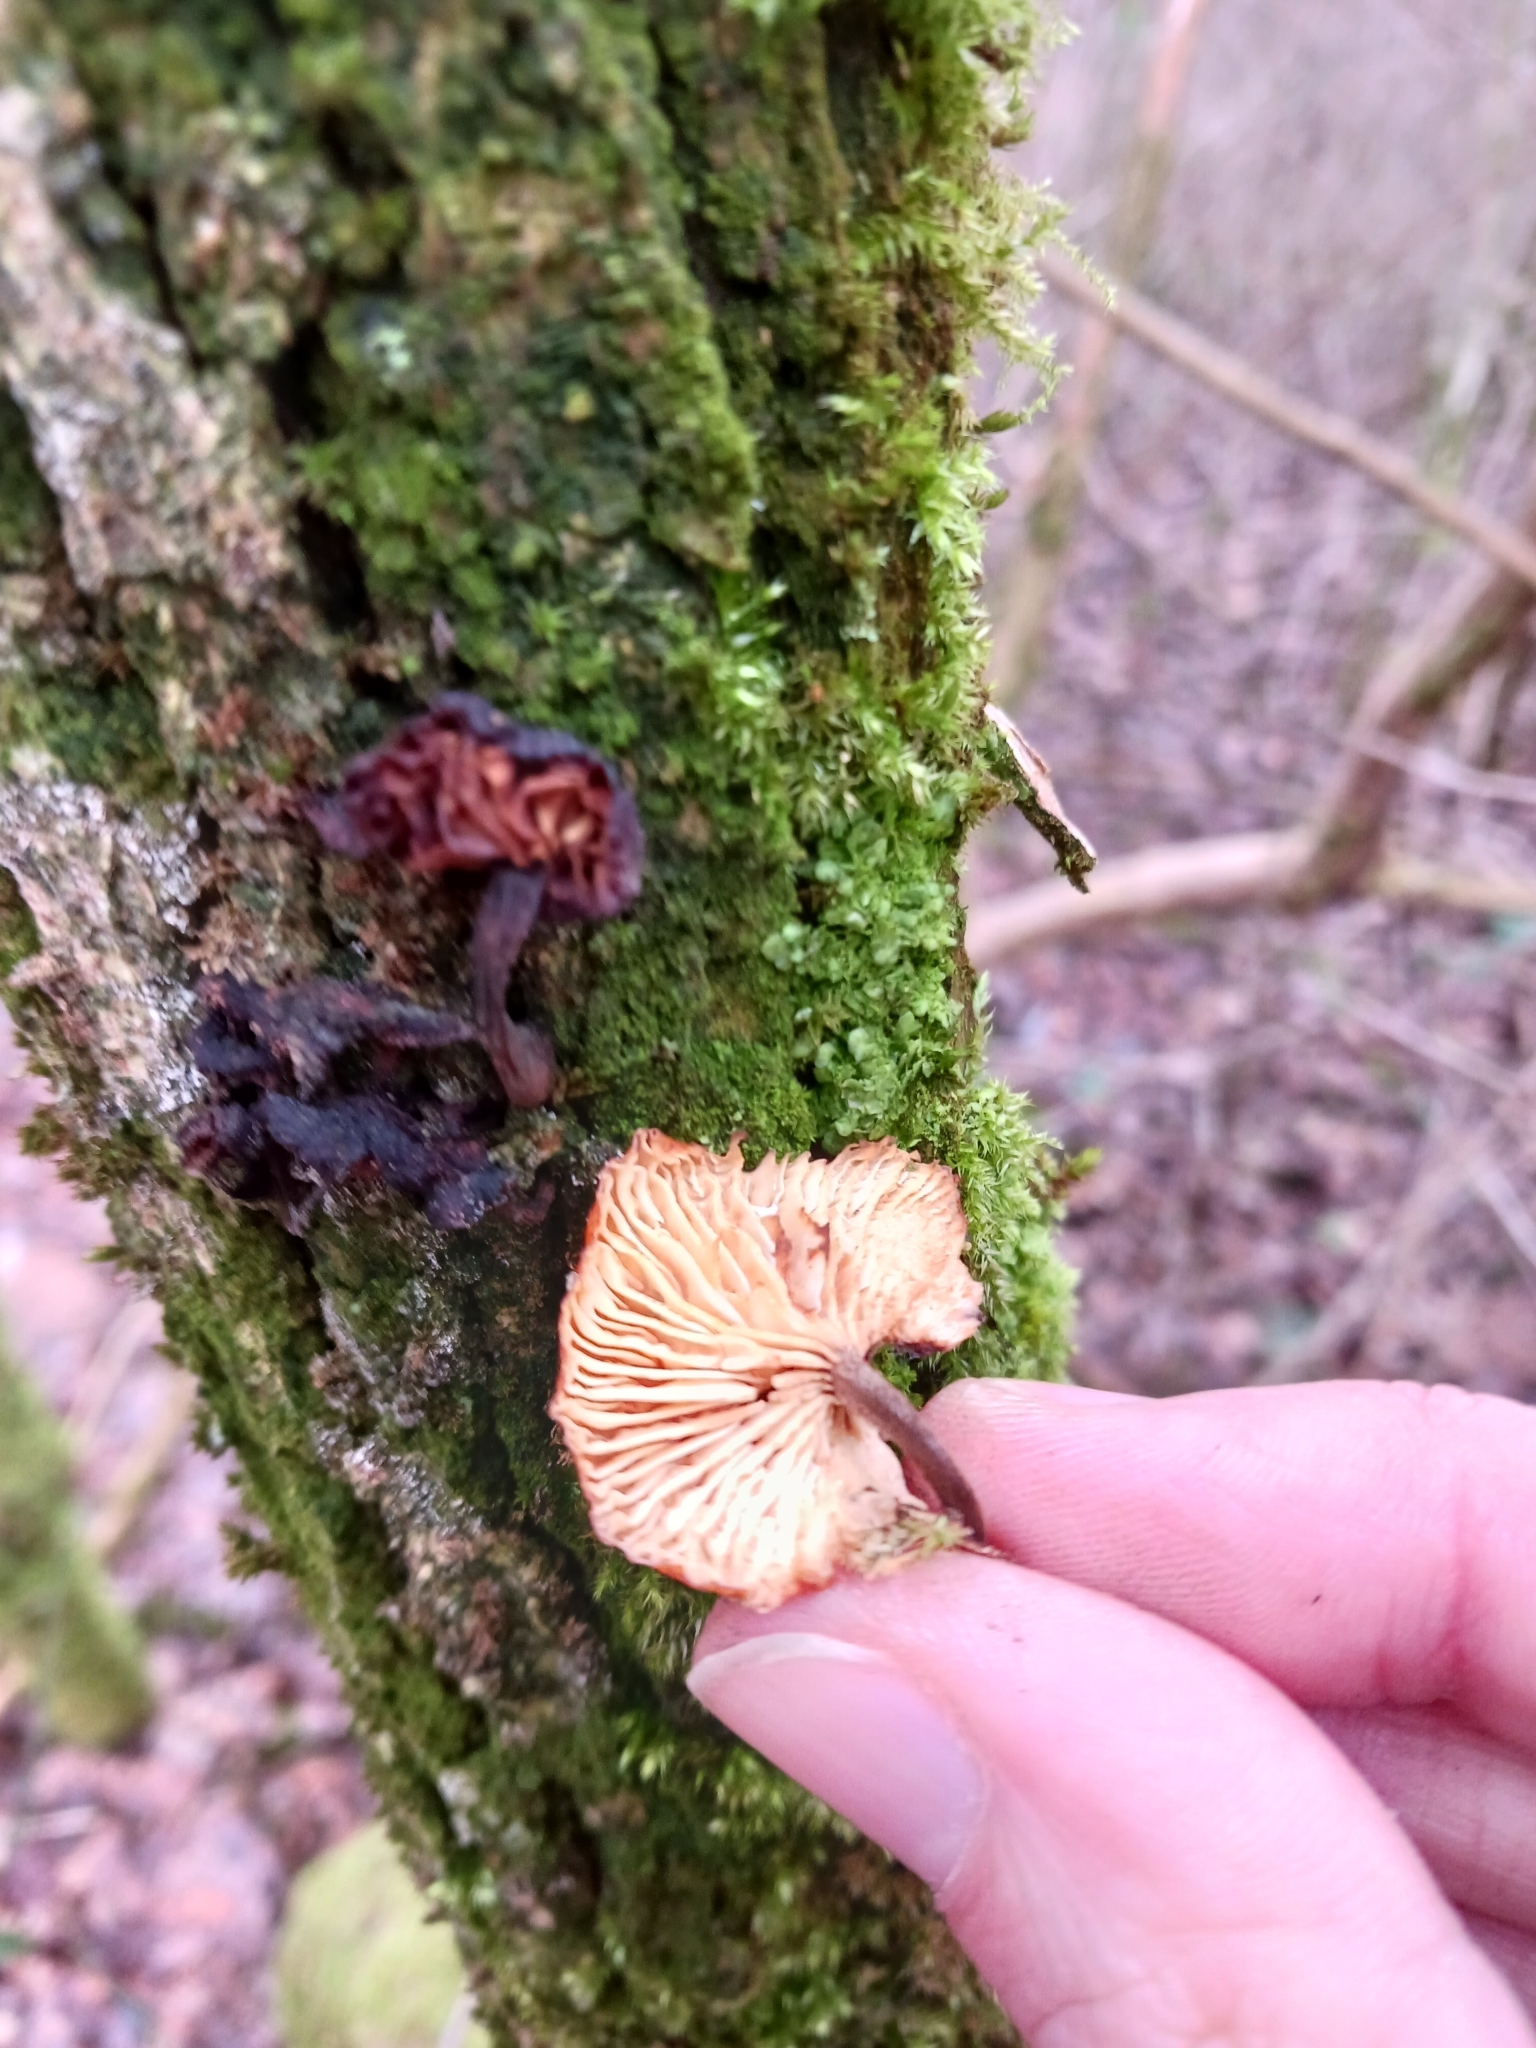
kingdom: Fungi
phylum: Basidiomycota
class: Agaricomycetes
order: Agaricales
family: Physalacriaceae
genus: Flammulina
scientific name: Flammulina
